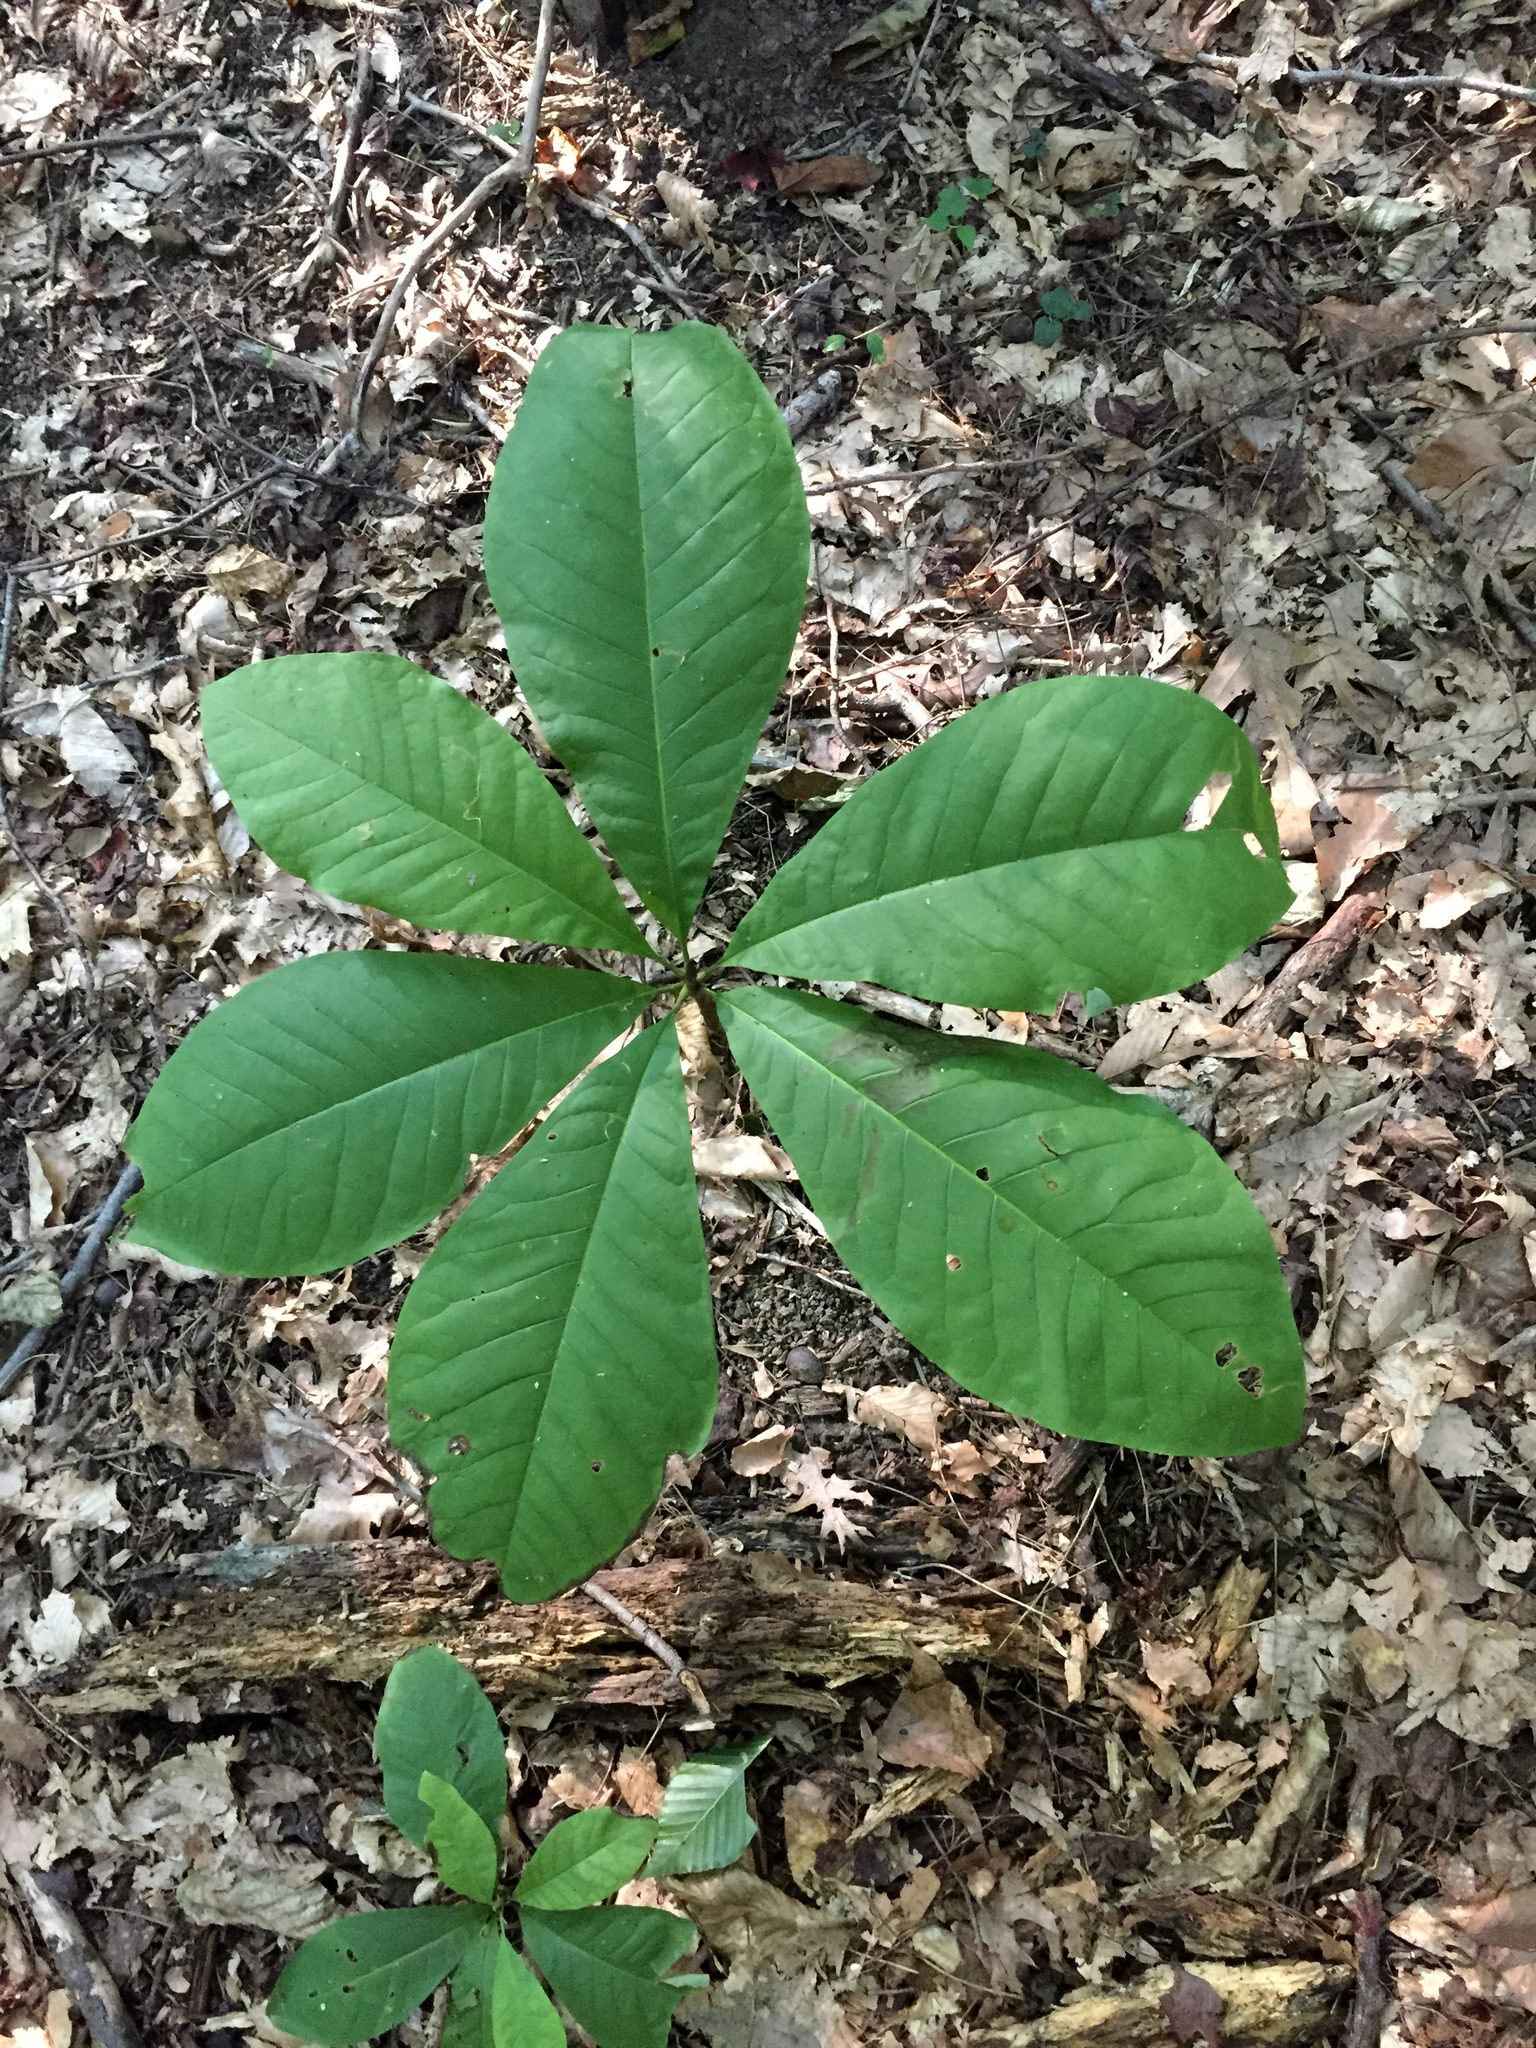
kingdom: Plantae
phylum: Tracheophyta
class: Magnoliopsida
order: Magnoliales
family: Magnoliaceae
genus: Magnolia
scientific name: Magnolia tripetala
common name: Umbrella magnolia
